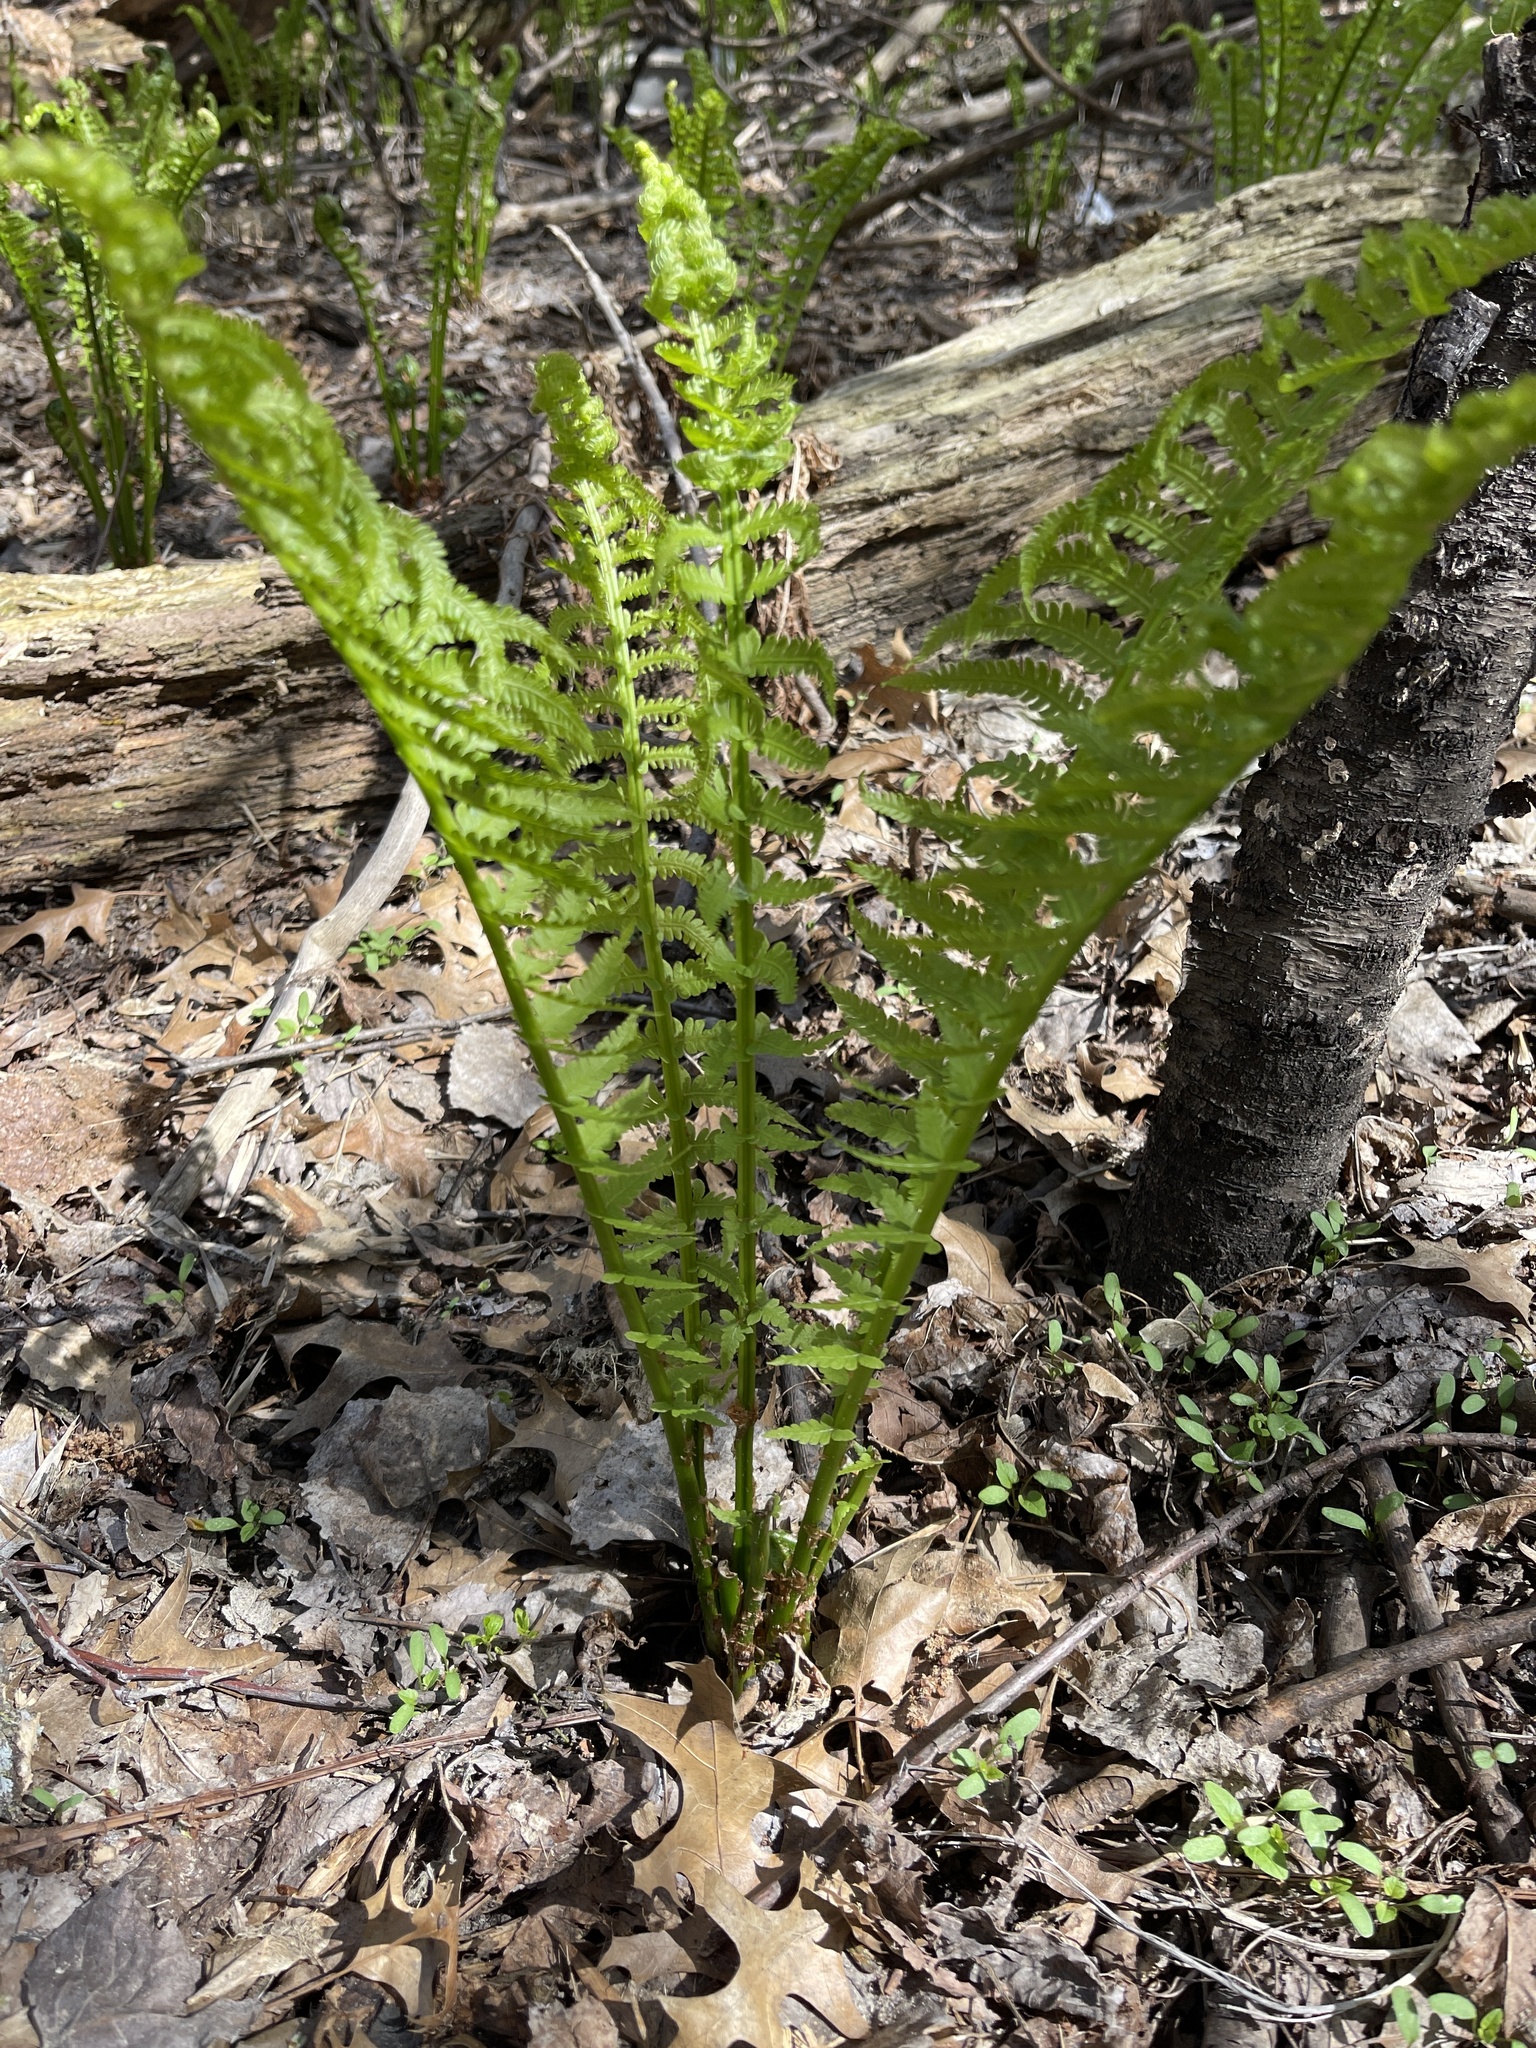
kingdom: Plantae
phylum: Tracheophyta
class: Polypodiopsida
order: Polypodiales
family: Onocleaceae
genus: Matteuccia
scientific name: Matteuccia struthiopteris
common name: Ostrich fern
